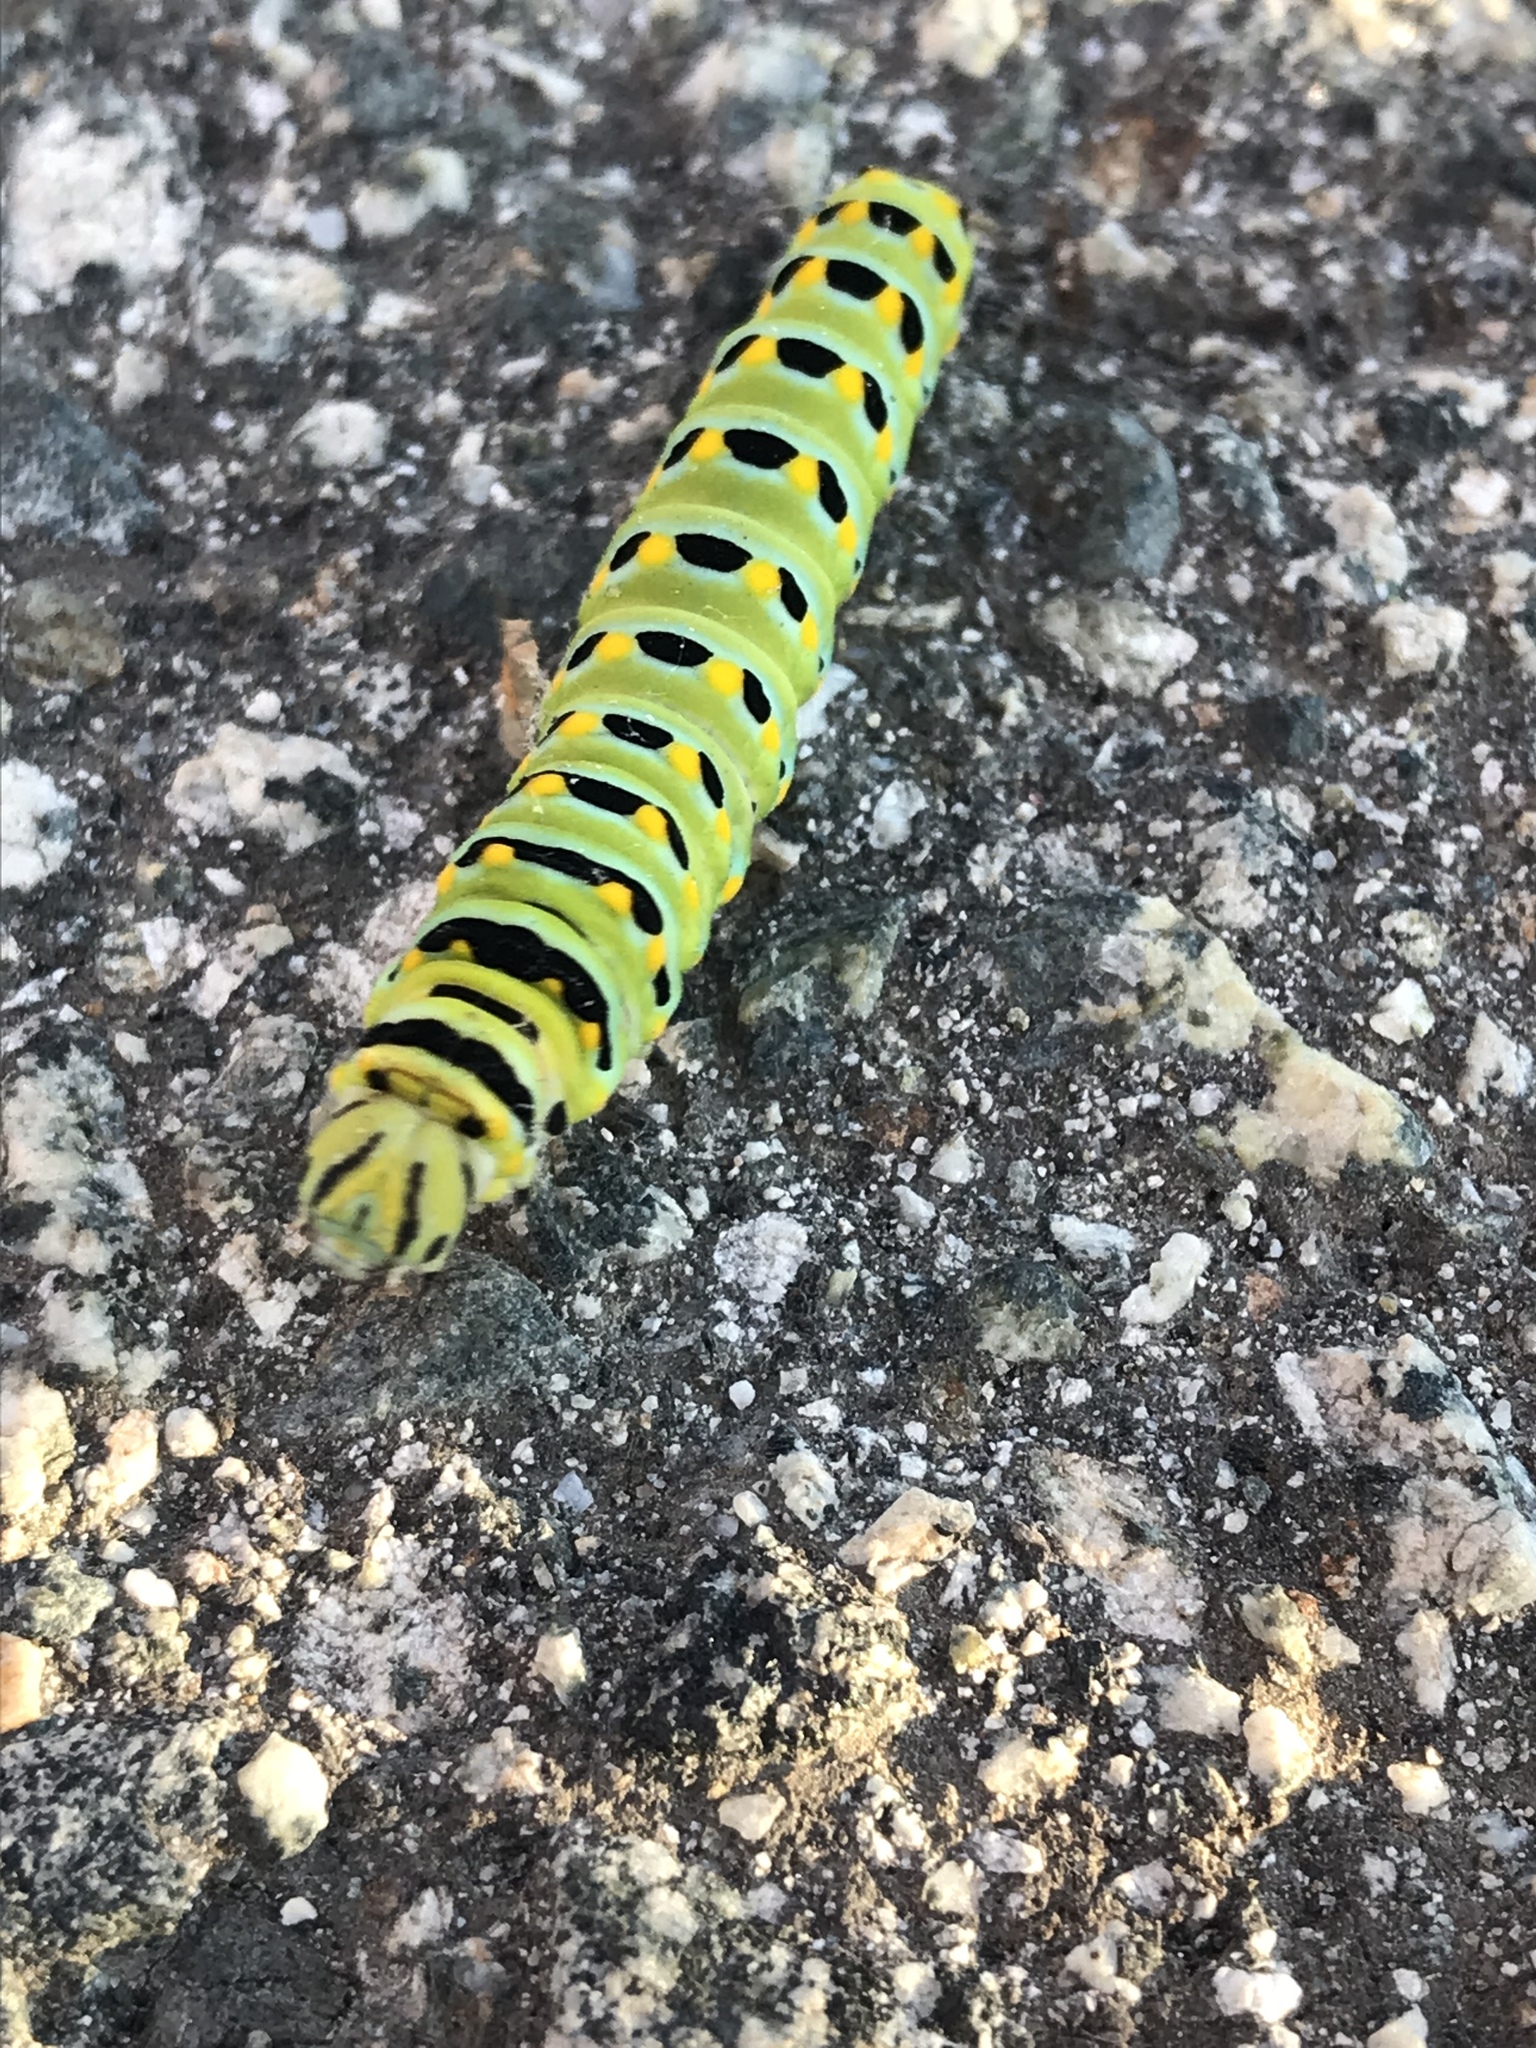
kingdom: Animalia
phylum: Arthropoda
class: Insecta
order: Lepidoptera
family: Papilionidae
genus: Papilio
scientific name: Papilio zelicaon
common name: Anise swallowtail
